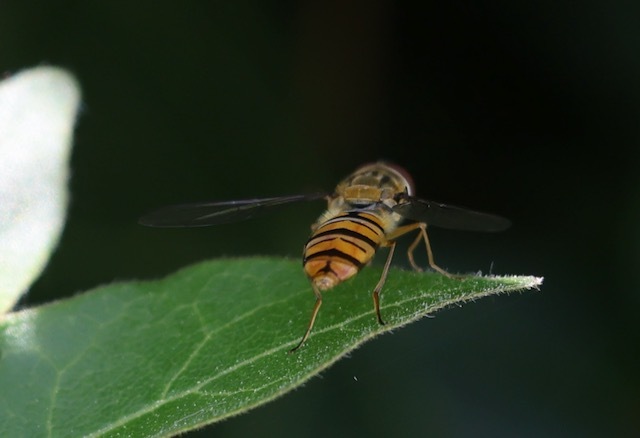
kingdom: Animalia
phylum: Arthropoda
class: Insecta
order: Diptera
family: Syrphidae
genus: Episyrphus
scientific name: Episyrphus balteatus
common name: Marmalade hoverfly
